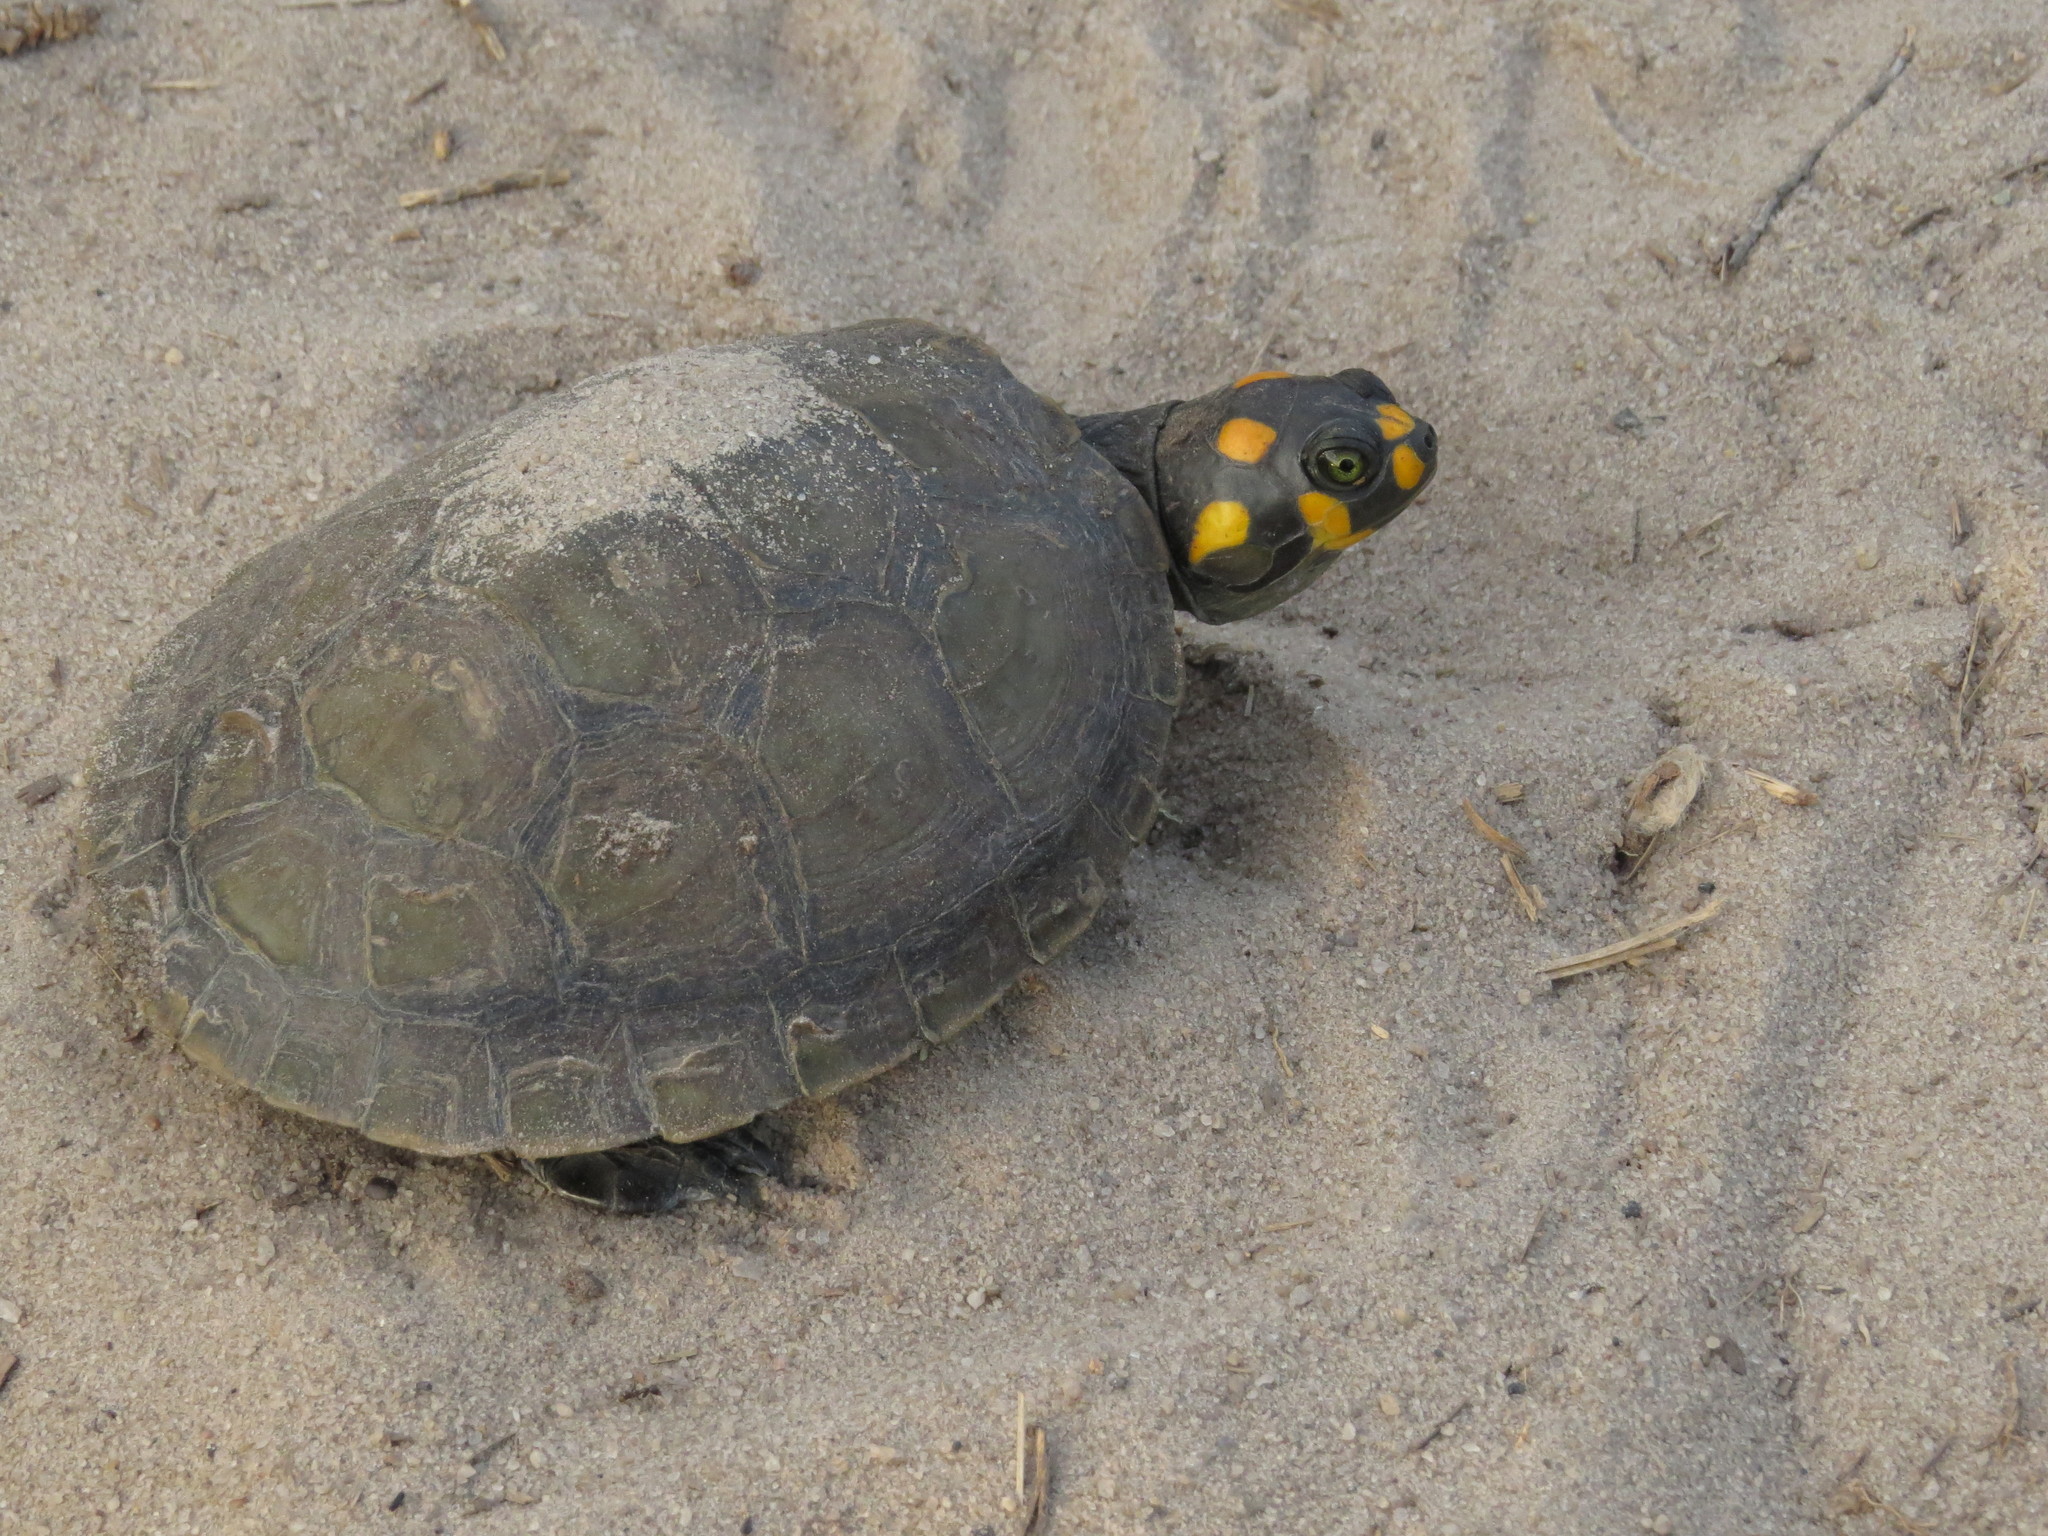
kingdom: Animalia
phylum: Chordata
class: Testudines
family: Podocnemididae
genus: Podocnemis
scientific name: Podocnemis unifilis
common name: Yellow-spotted amazon river turtle
